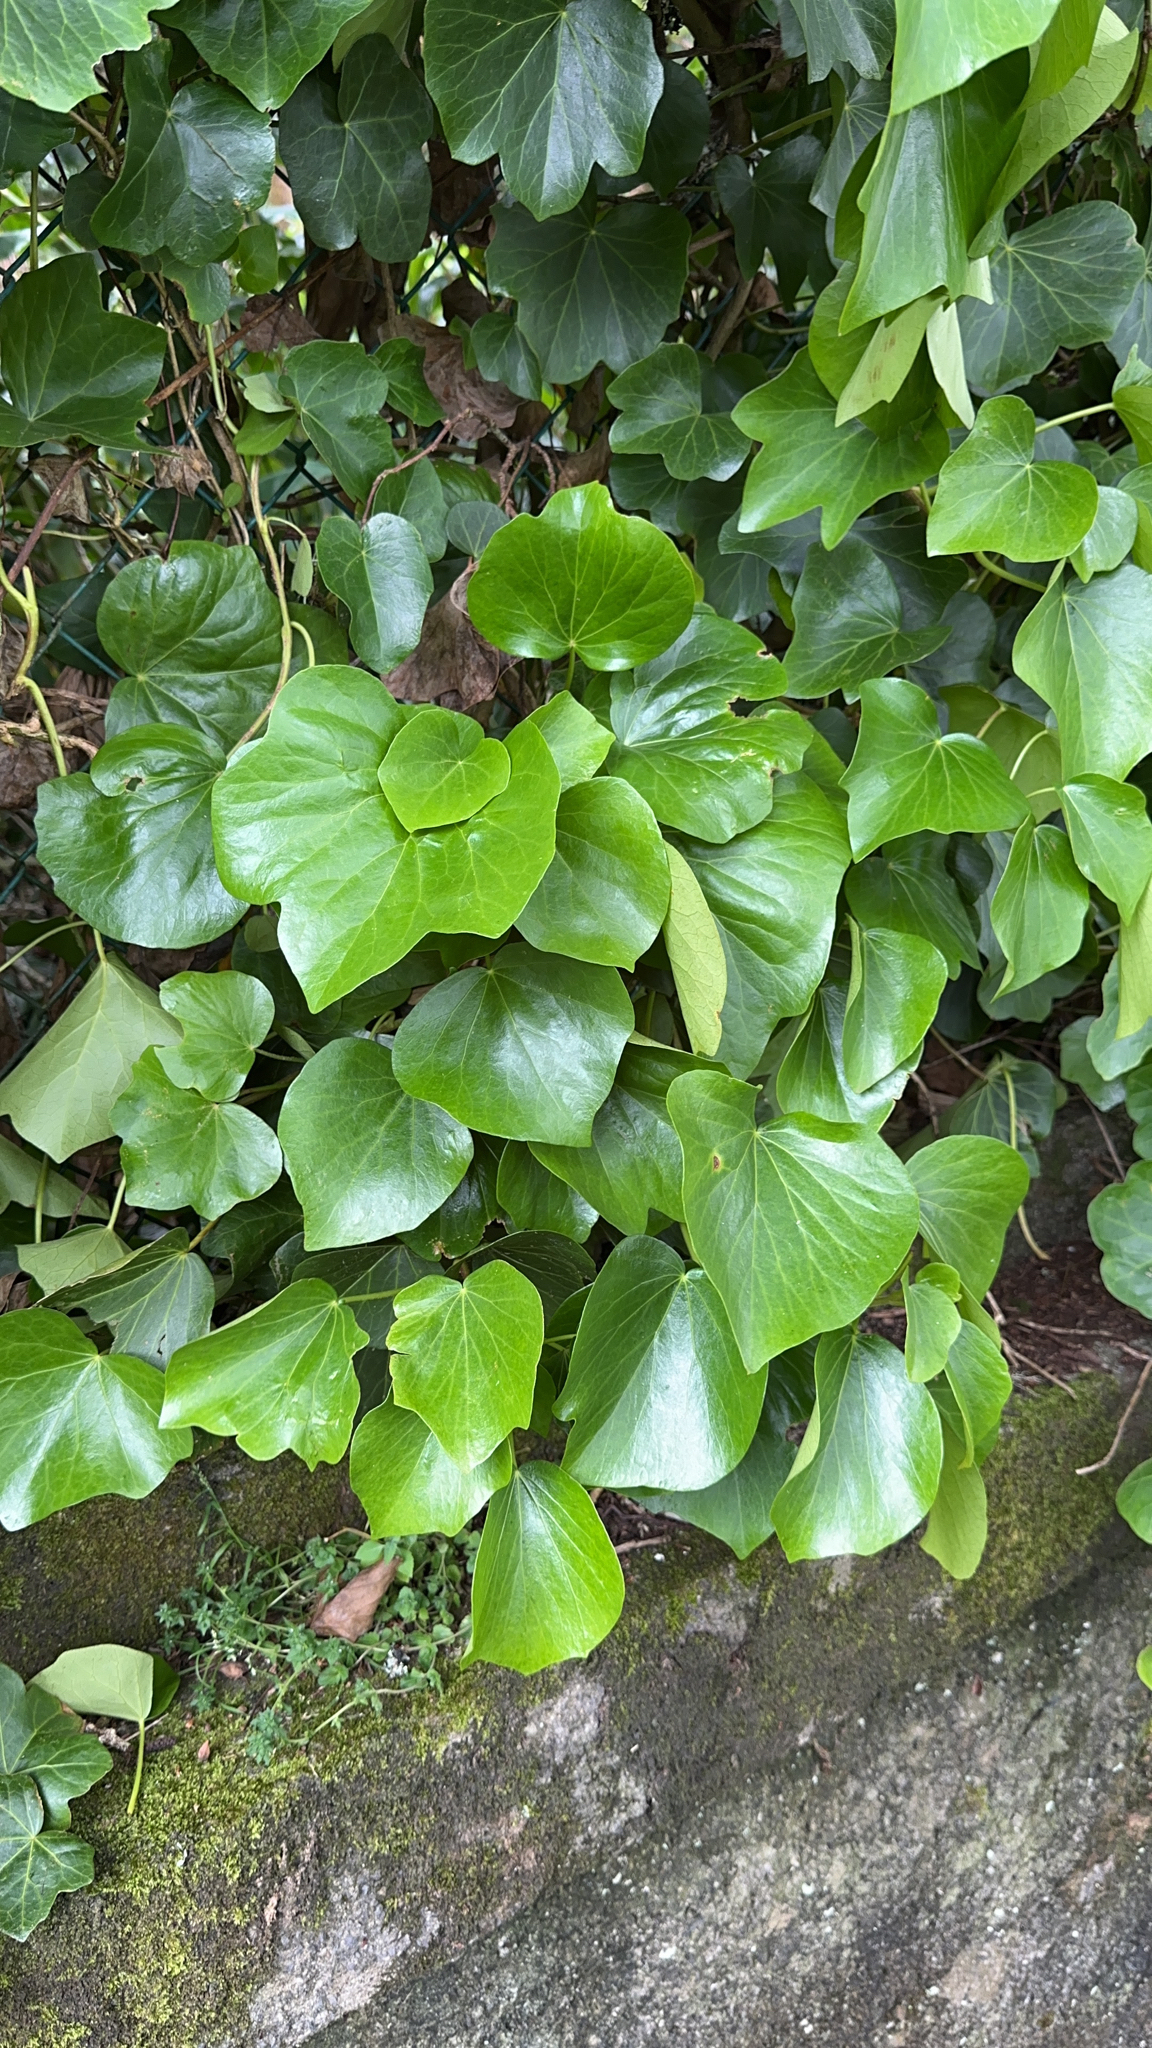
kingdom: Plantae
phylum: Tracheophyta
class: Magnoliopsida
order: Apiales
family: Araliaceae
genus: Hedera
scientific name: Hedera azorica
